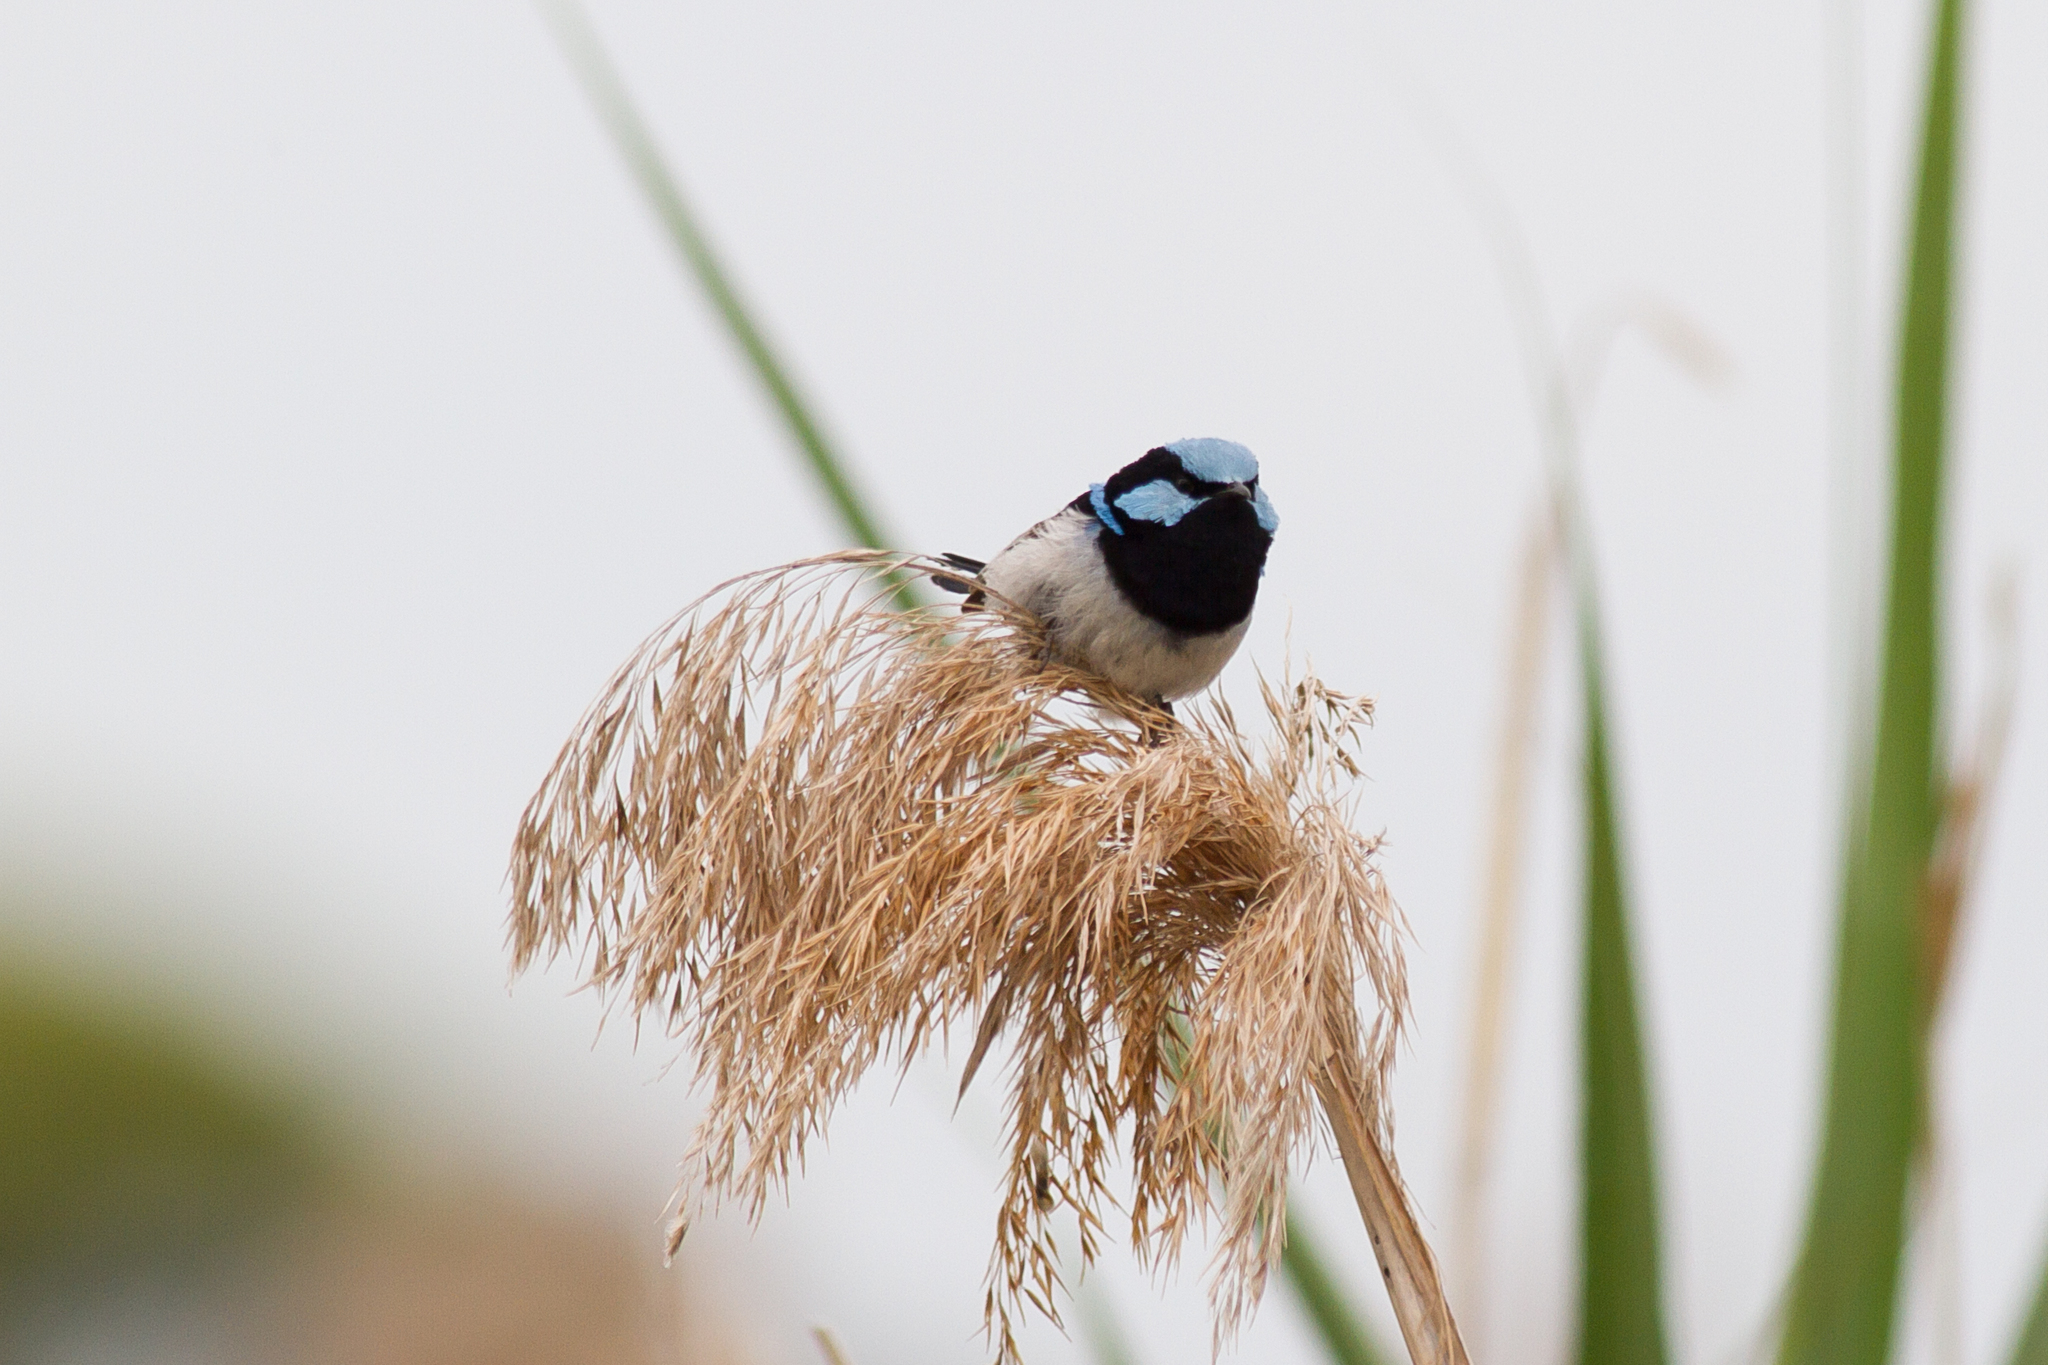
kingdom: Animalia
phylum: Chordata
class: Aves
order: Passeriformes
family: Maluridae
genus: Malurus
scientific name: Malurus cyaneus
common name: Superb fairywren
